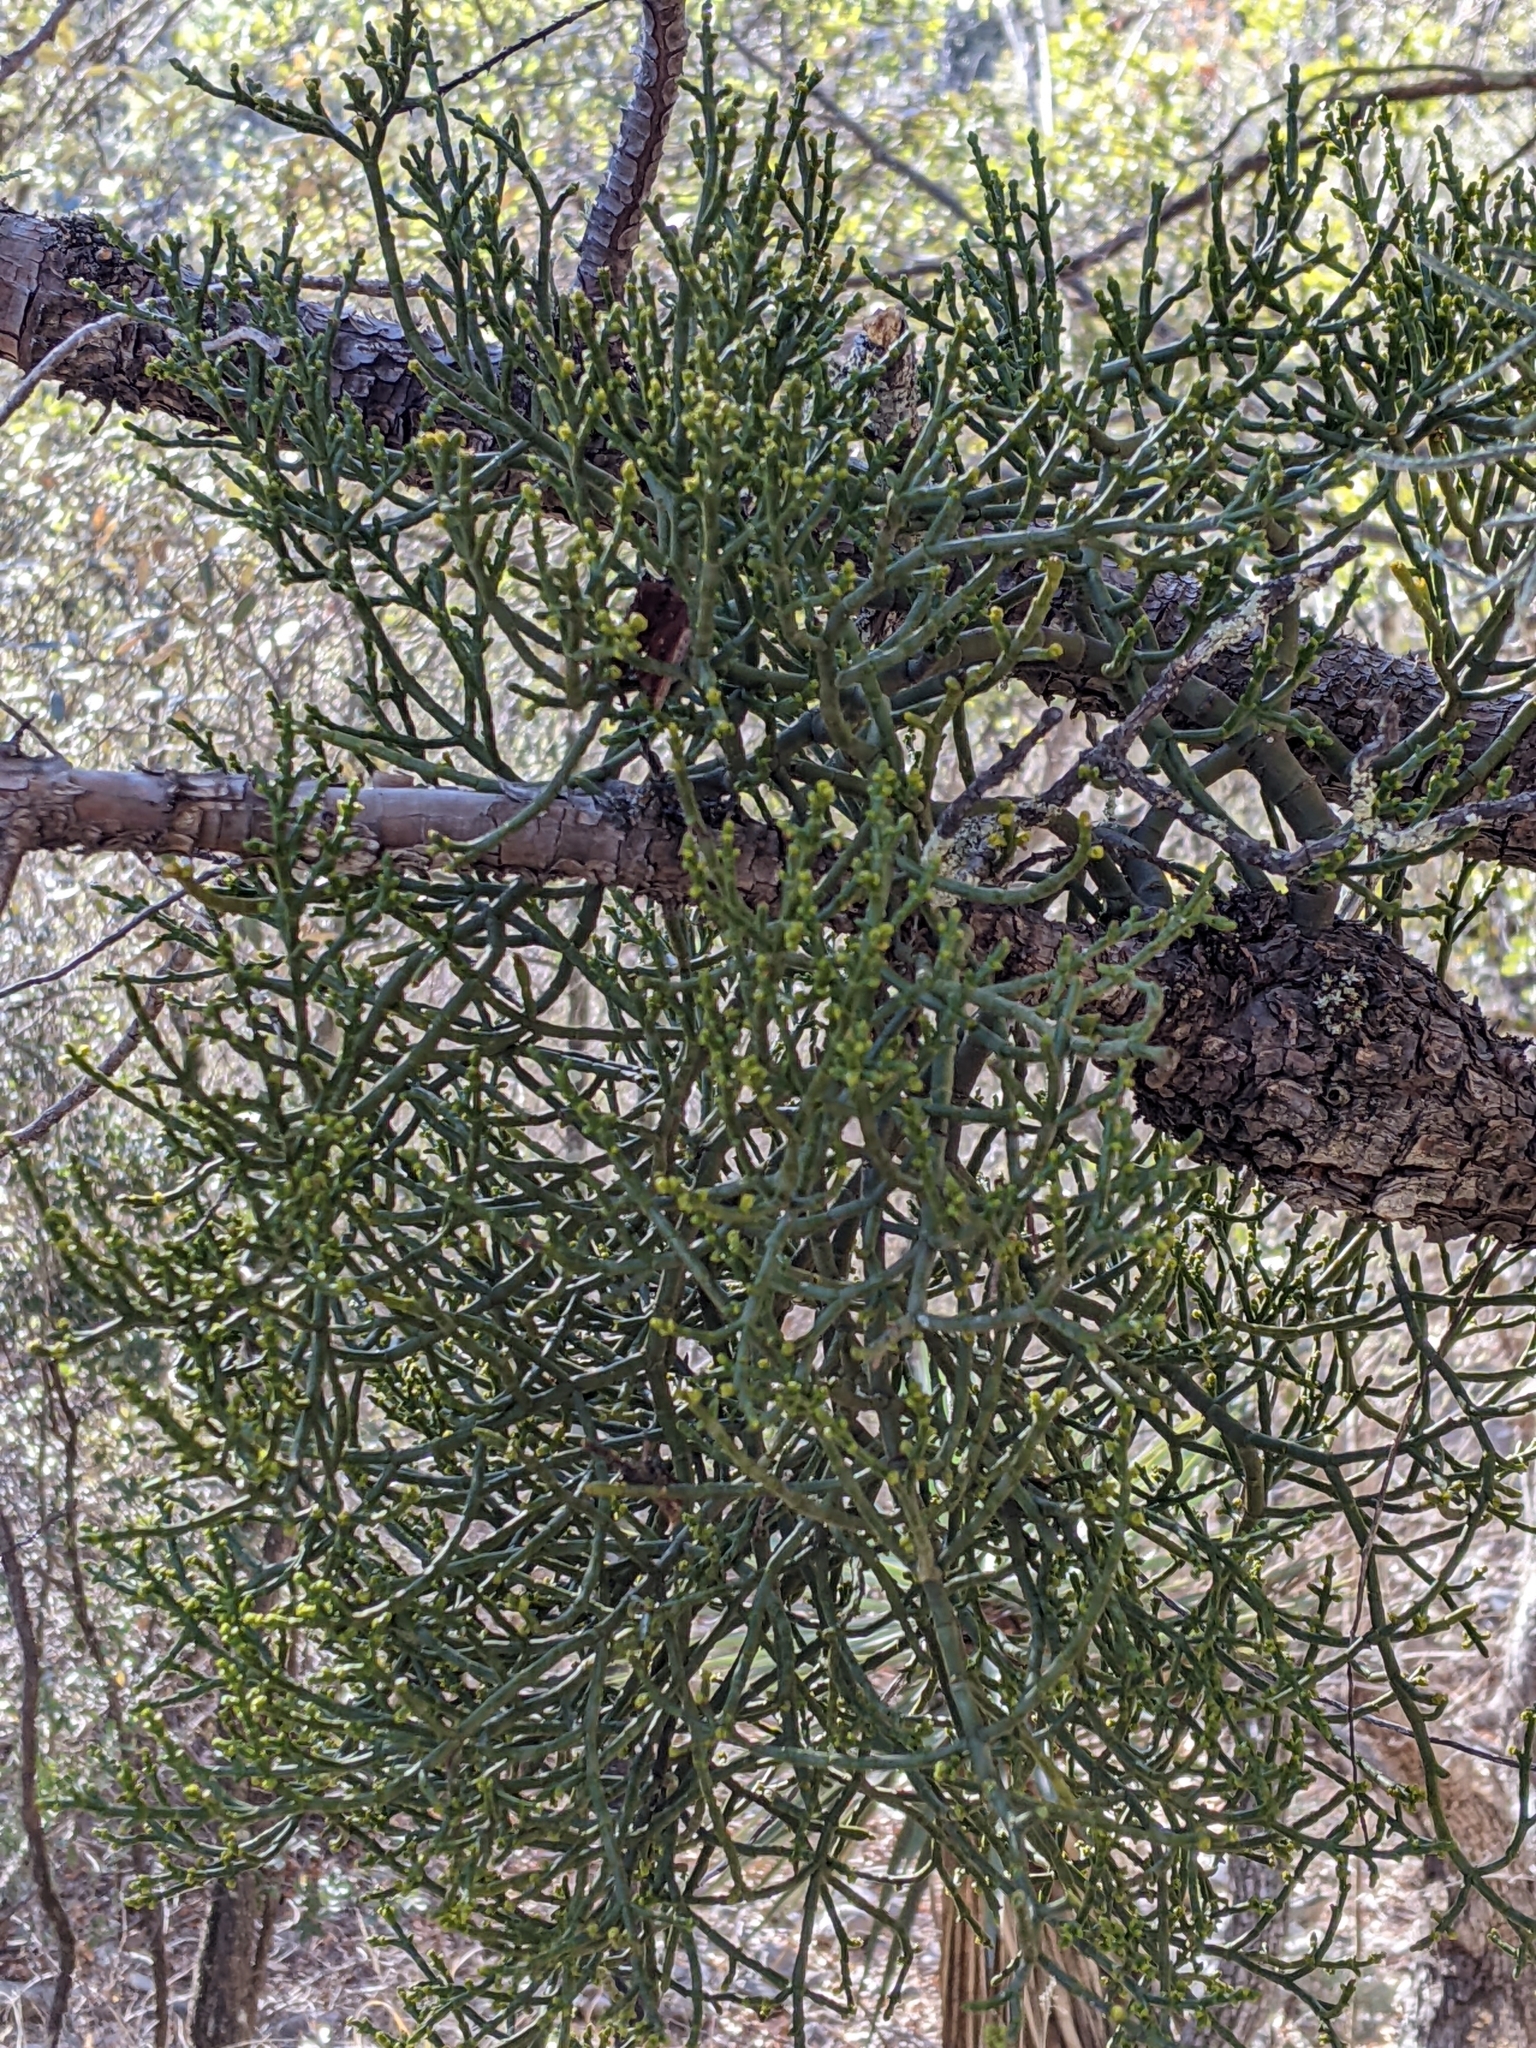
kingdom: Plantae
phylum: Tracheophyta
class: Magnoliopsida
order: Santalales
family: Viscaceae
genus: Phoradendron
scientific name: Phoradendron juniperinum
